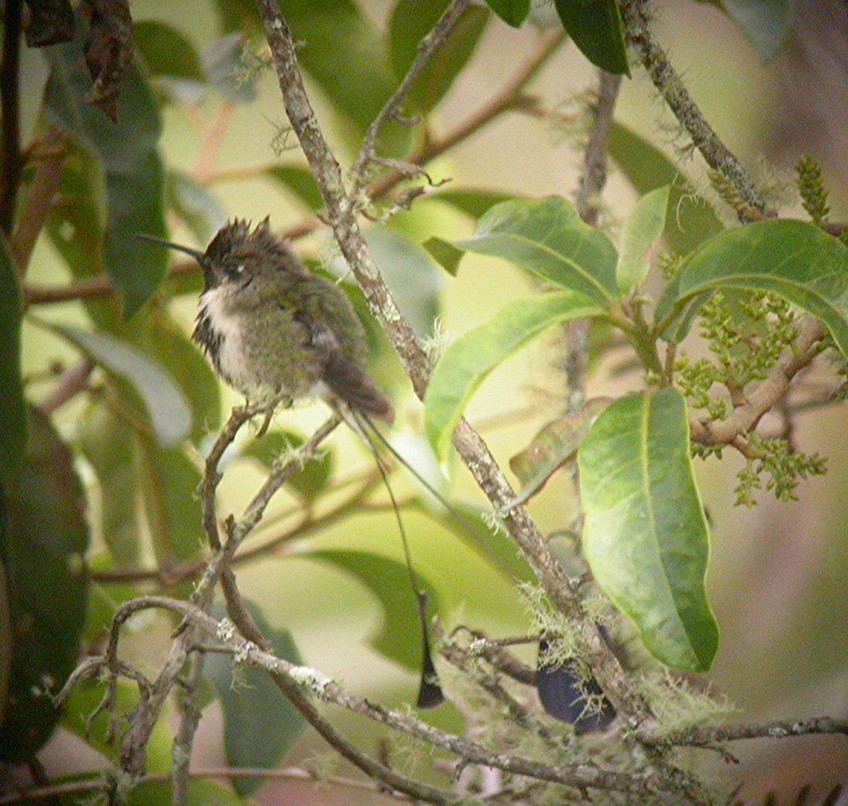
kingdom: Animalia
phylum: Chordata
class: Aves
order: Apodiformes
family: Trochilidae
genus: Loddigesia
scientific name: Loddigesia mirabilis
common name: Marvelous spatuletail
